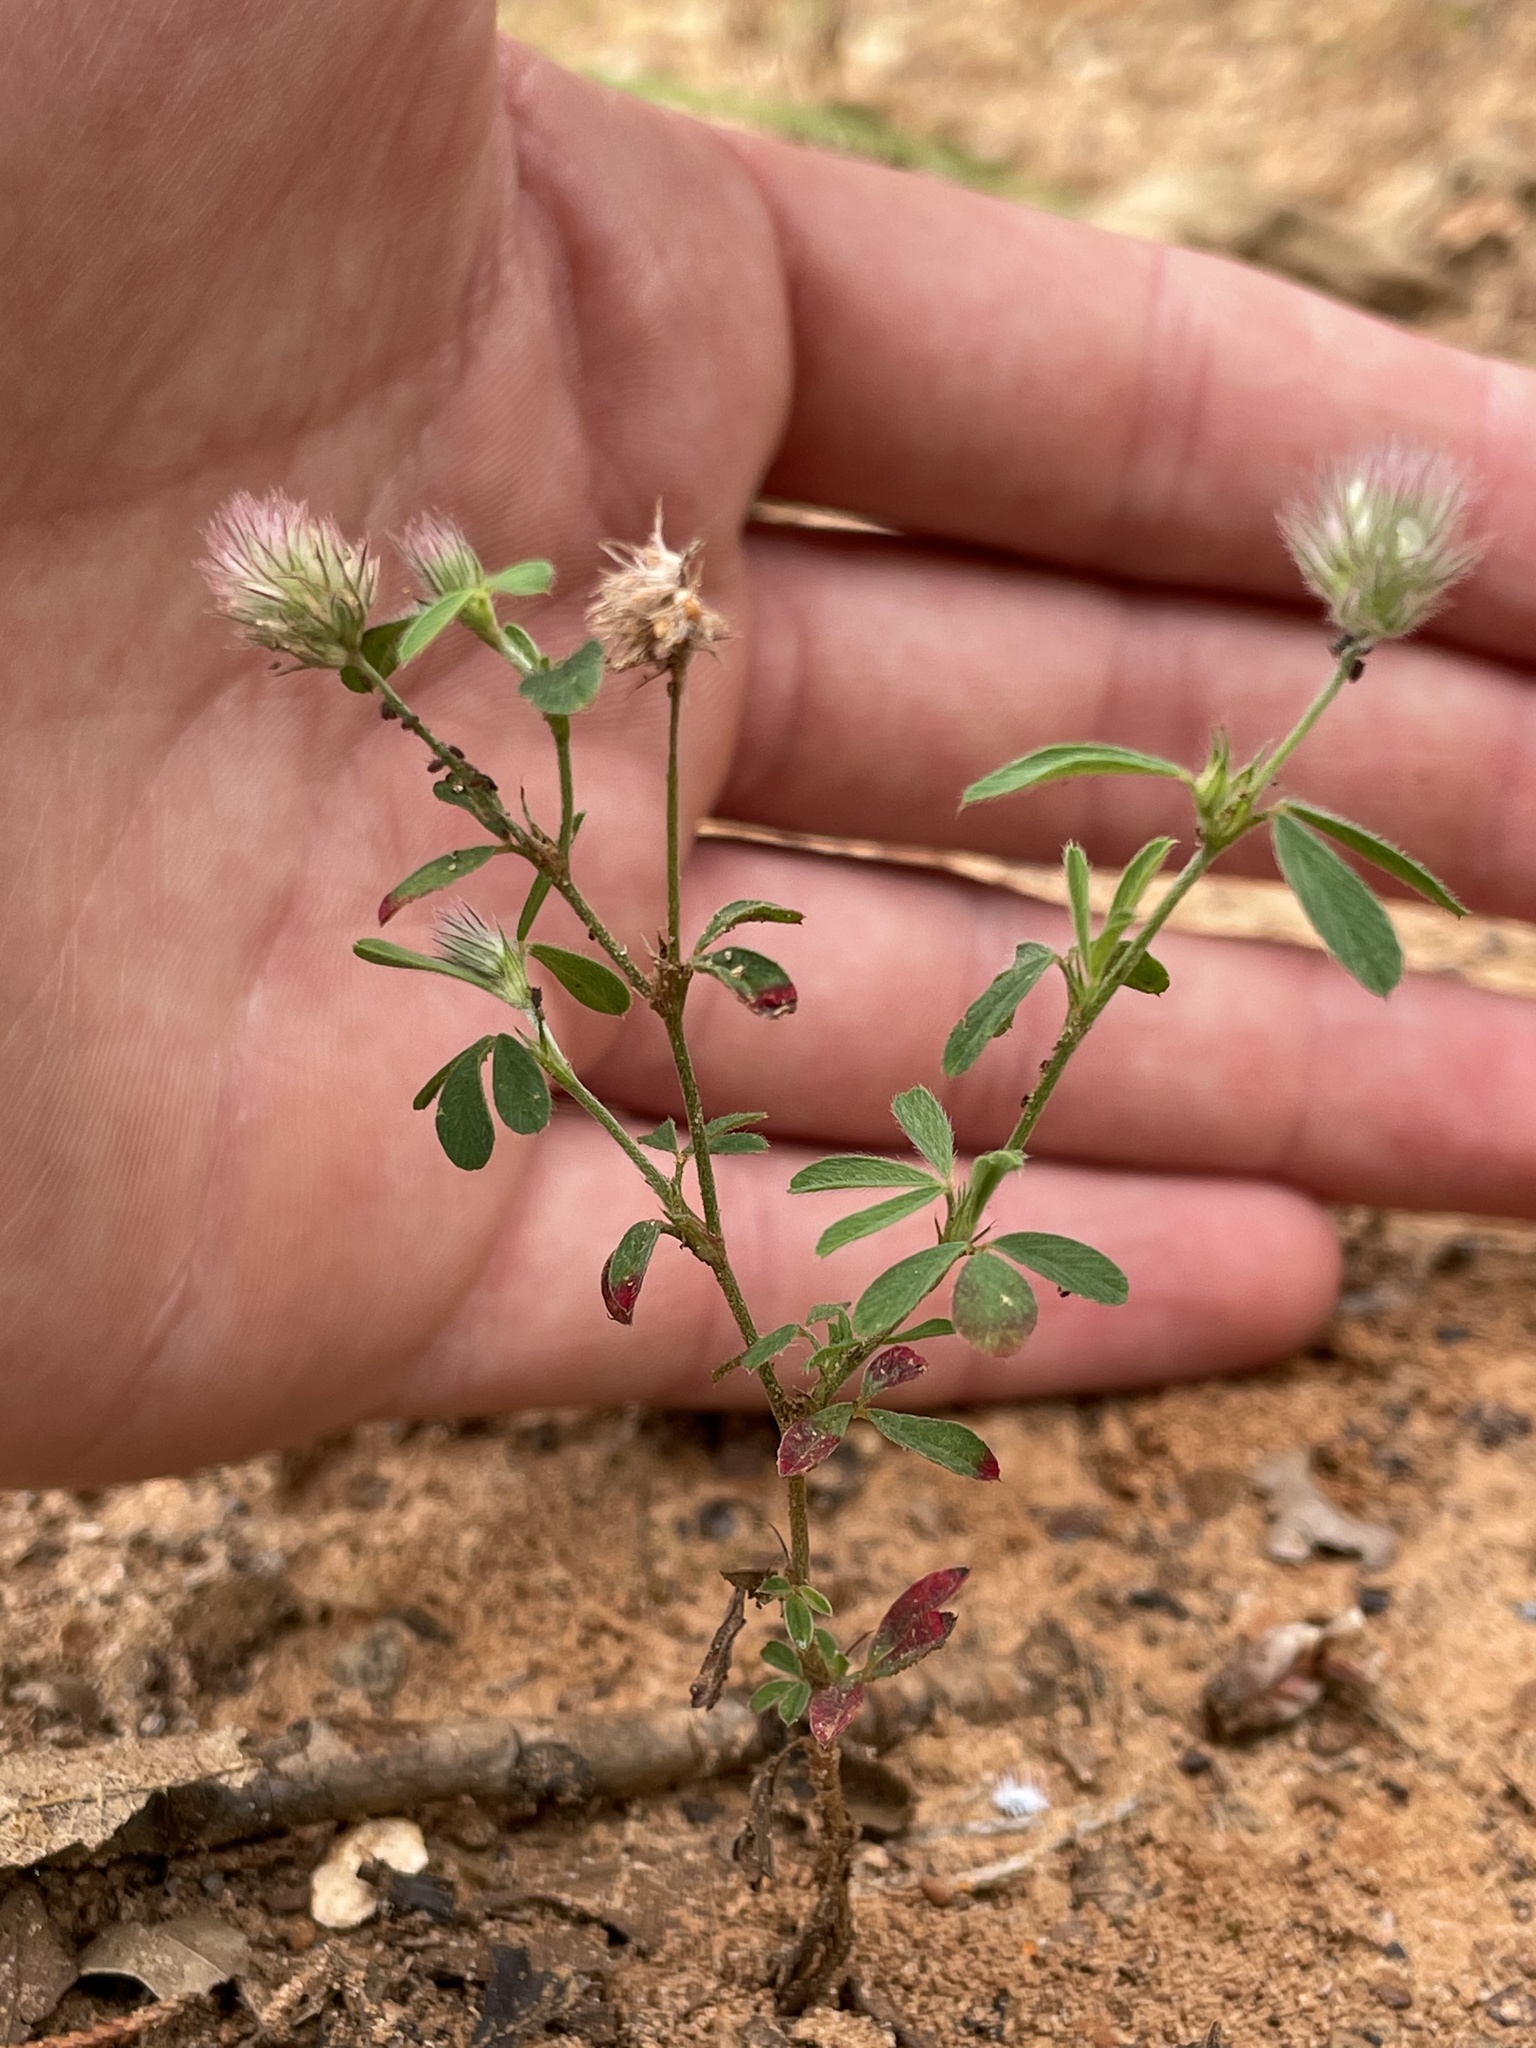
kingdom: Plantae
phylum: Tracheophyta
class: Magnoliopsida
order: Fabales
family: Fabaceae
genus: Trifolium
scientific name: Trifolium arvense
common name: Hare's-foot clover
